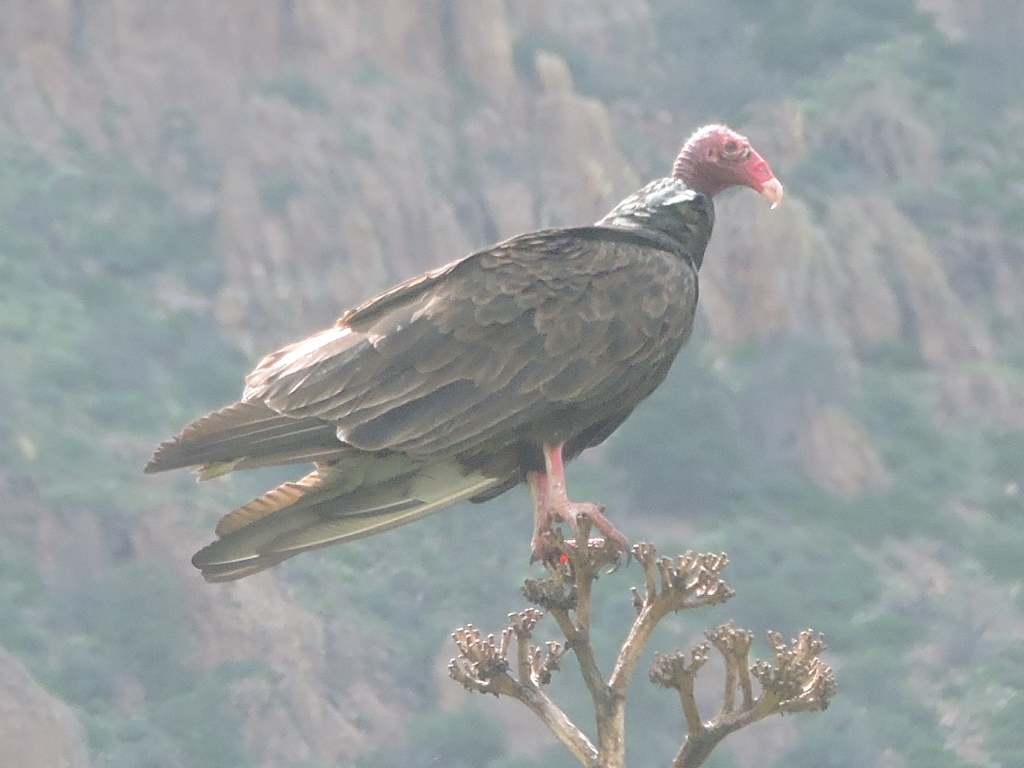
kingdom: Animalia
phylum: Chordata
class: Aves
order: Accipitriformes
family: Cathartidae
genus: Cathartes
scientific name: Cathartes aura
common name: Turkey vulture
